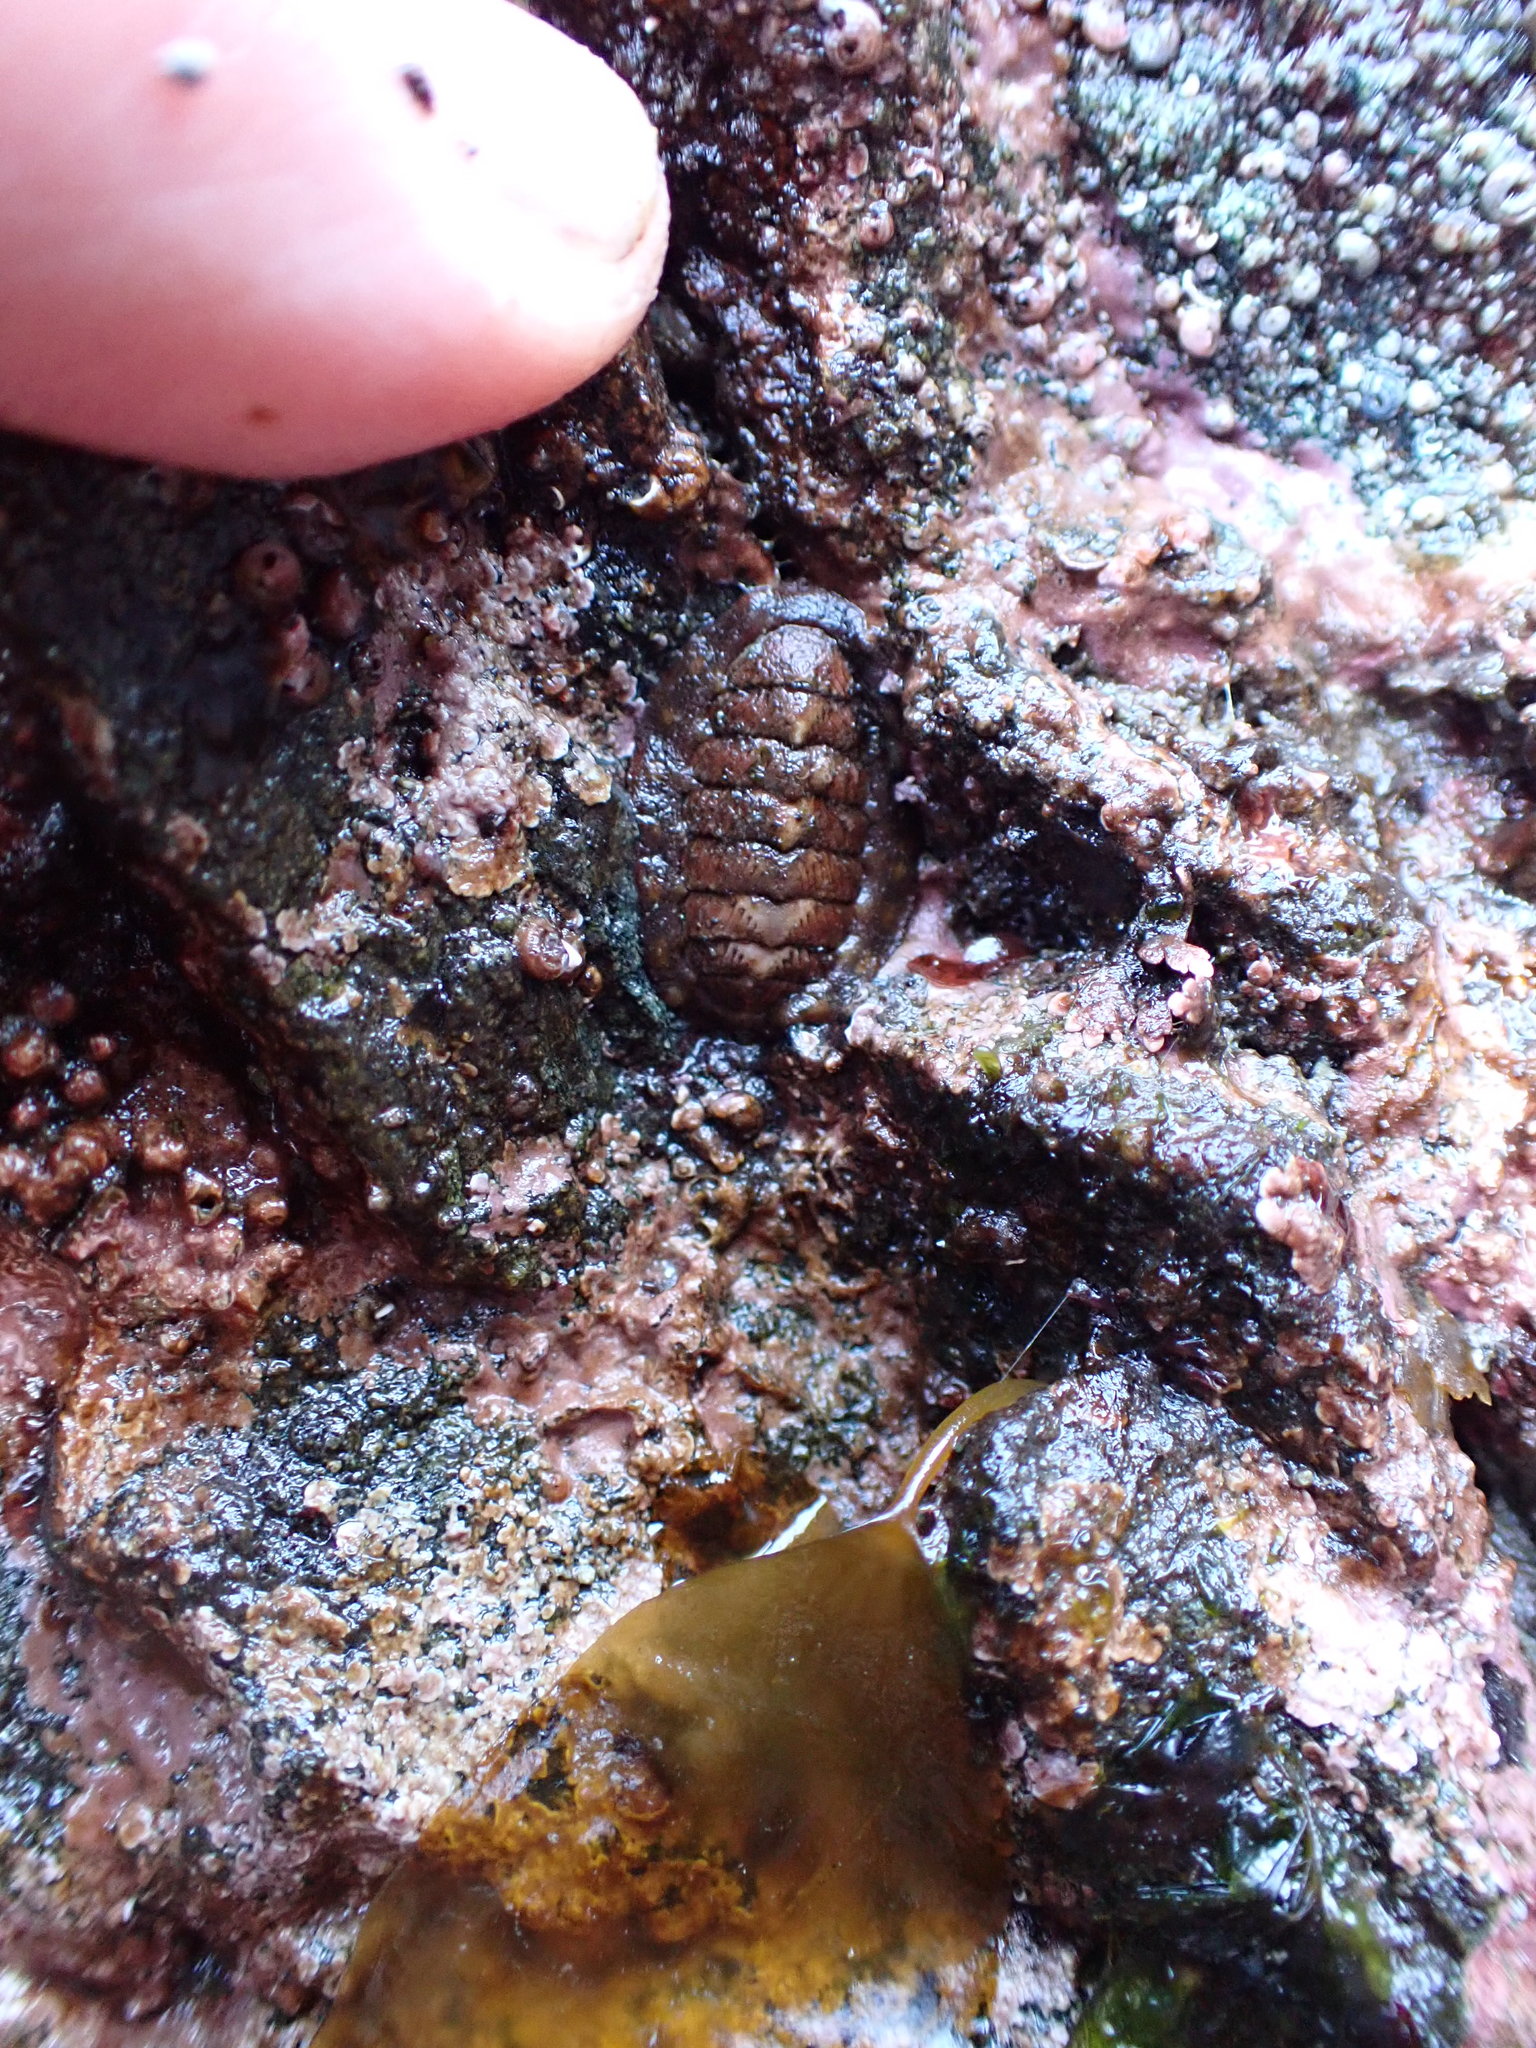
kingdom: Animalia
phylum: Mollusca
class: Polyplacophora
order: Chitonida
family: Tonicellidae
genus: Tonicella
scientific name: Tonicella lineata
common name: Lined chiton
